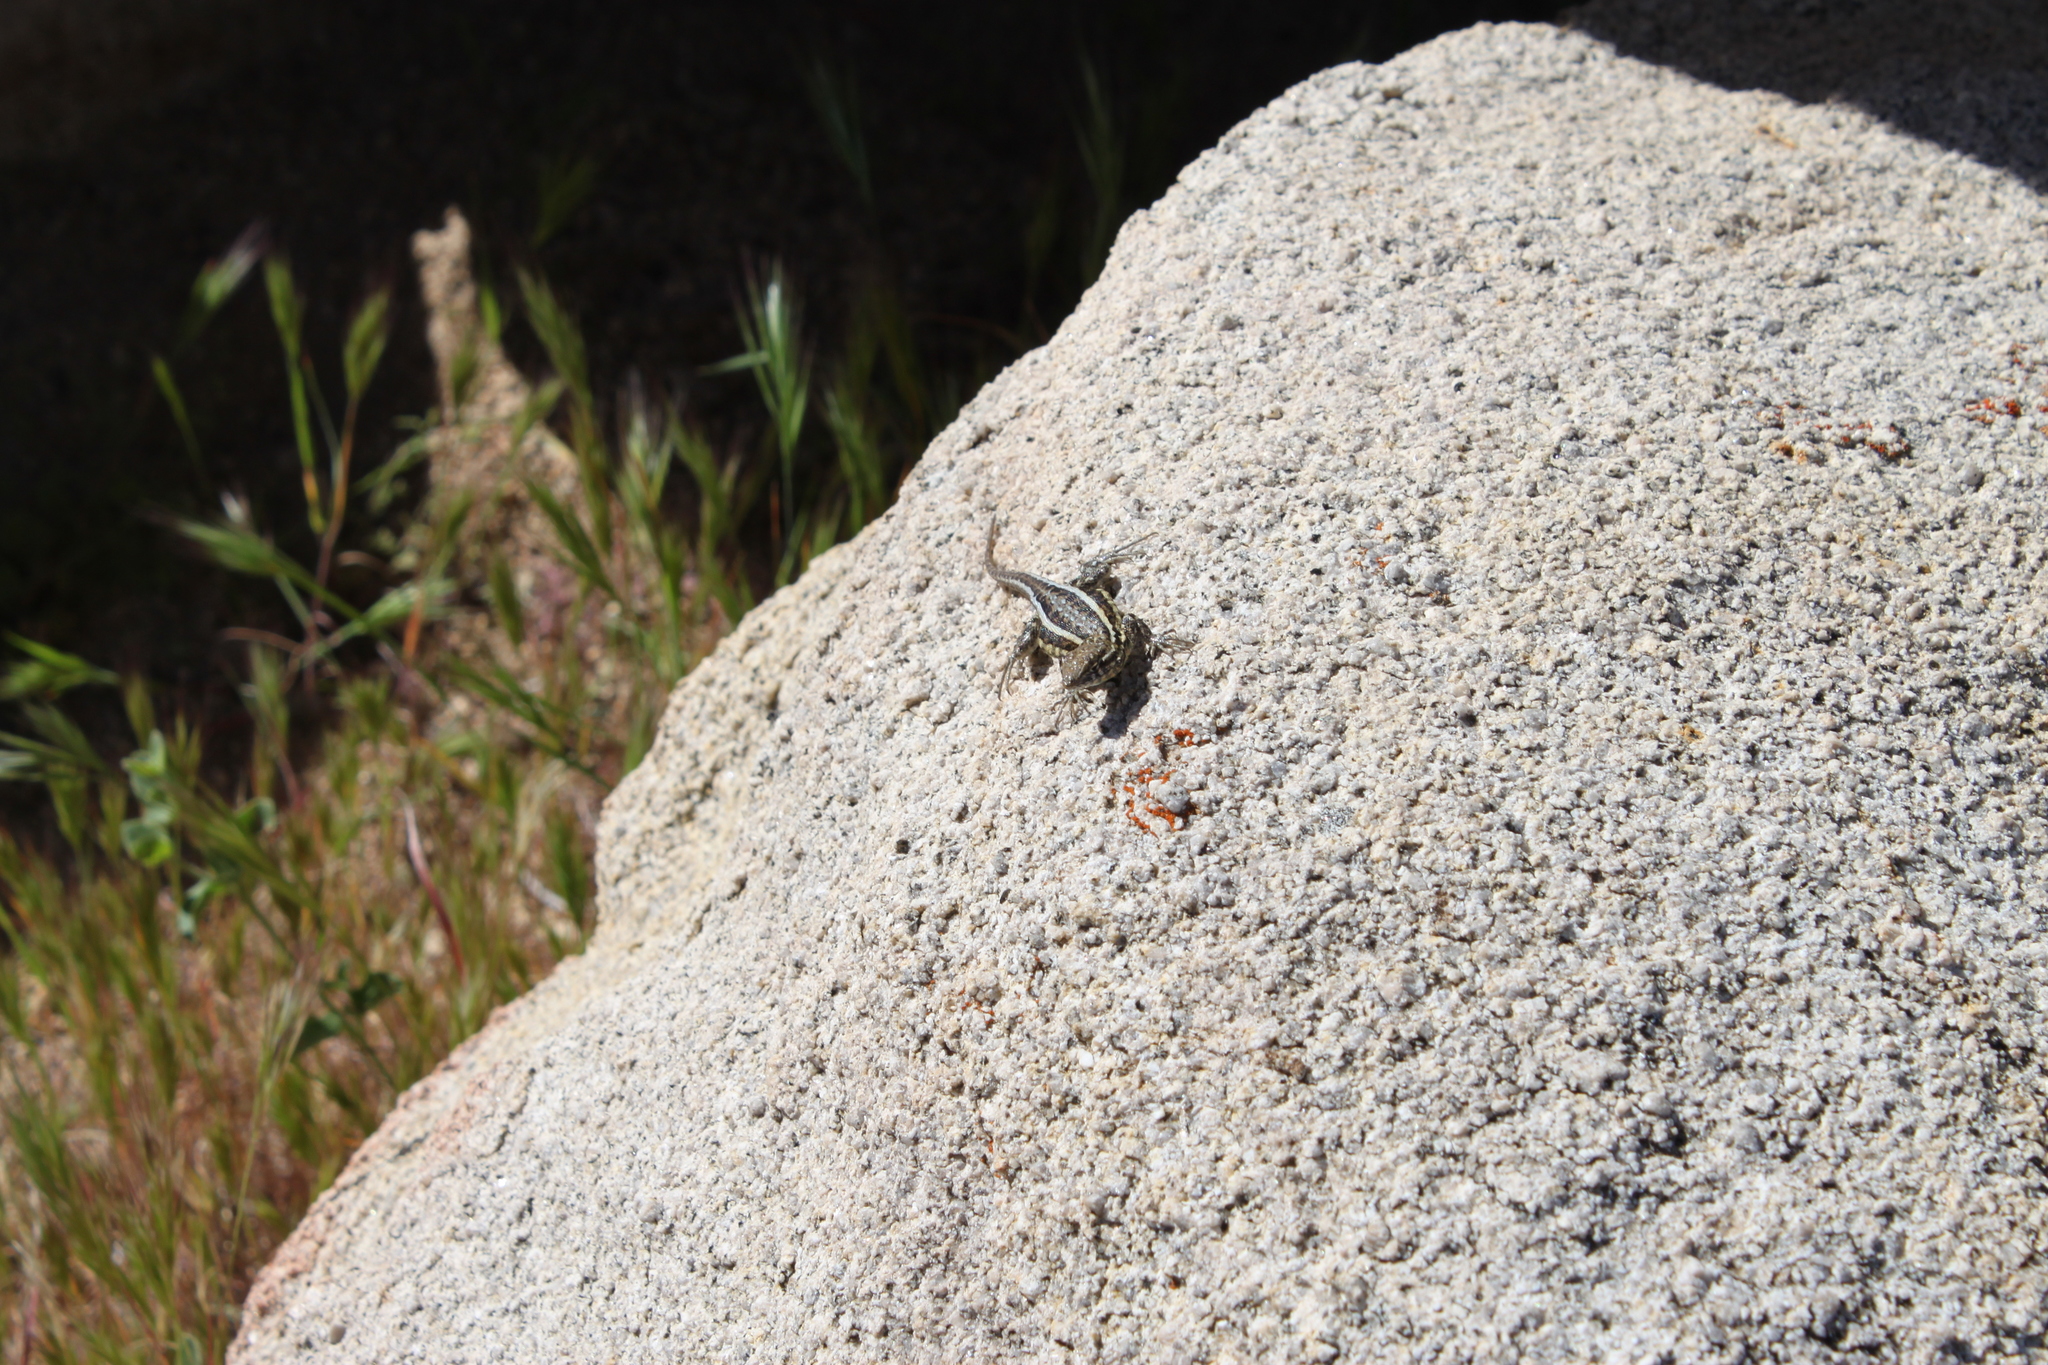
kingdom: Animalia
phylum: Chordata
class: Squamata
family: Phrynosomatidae
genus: Uta
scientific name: Uta stansburiana
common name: Side-blotched lizard
